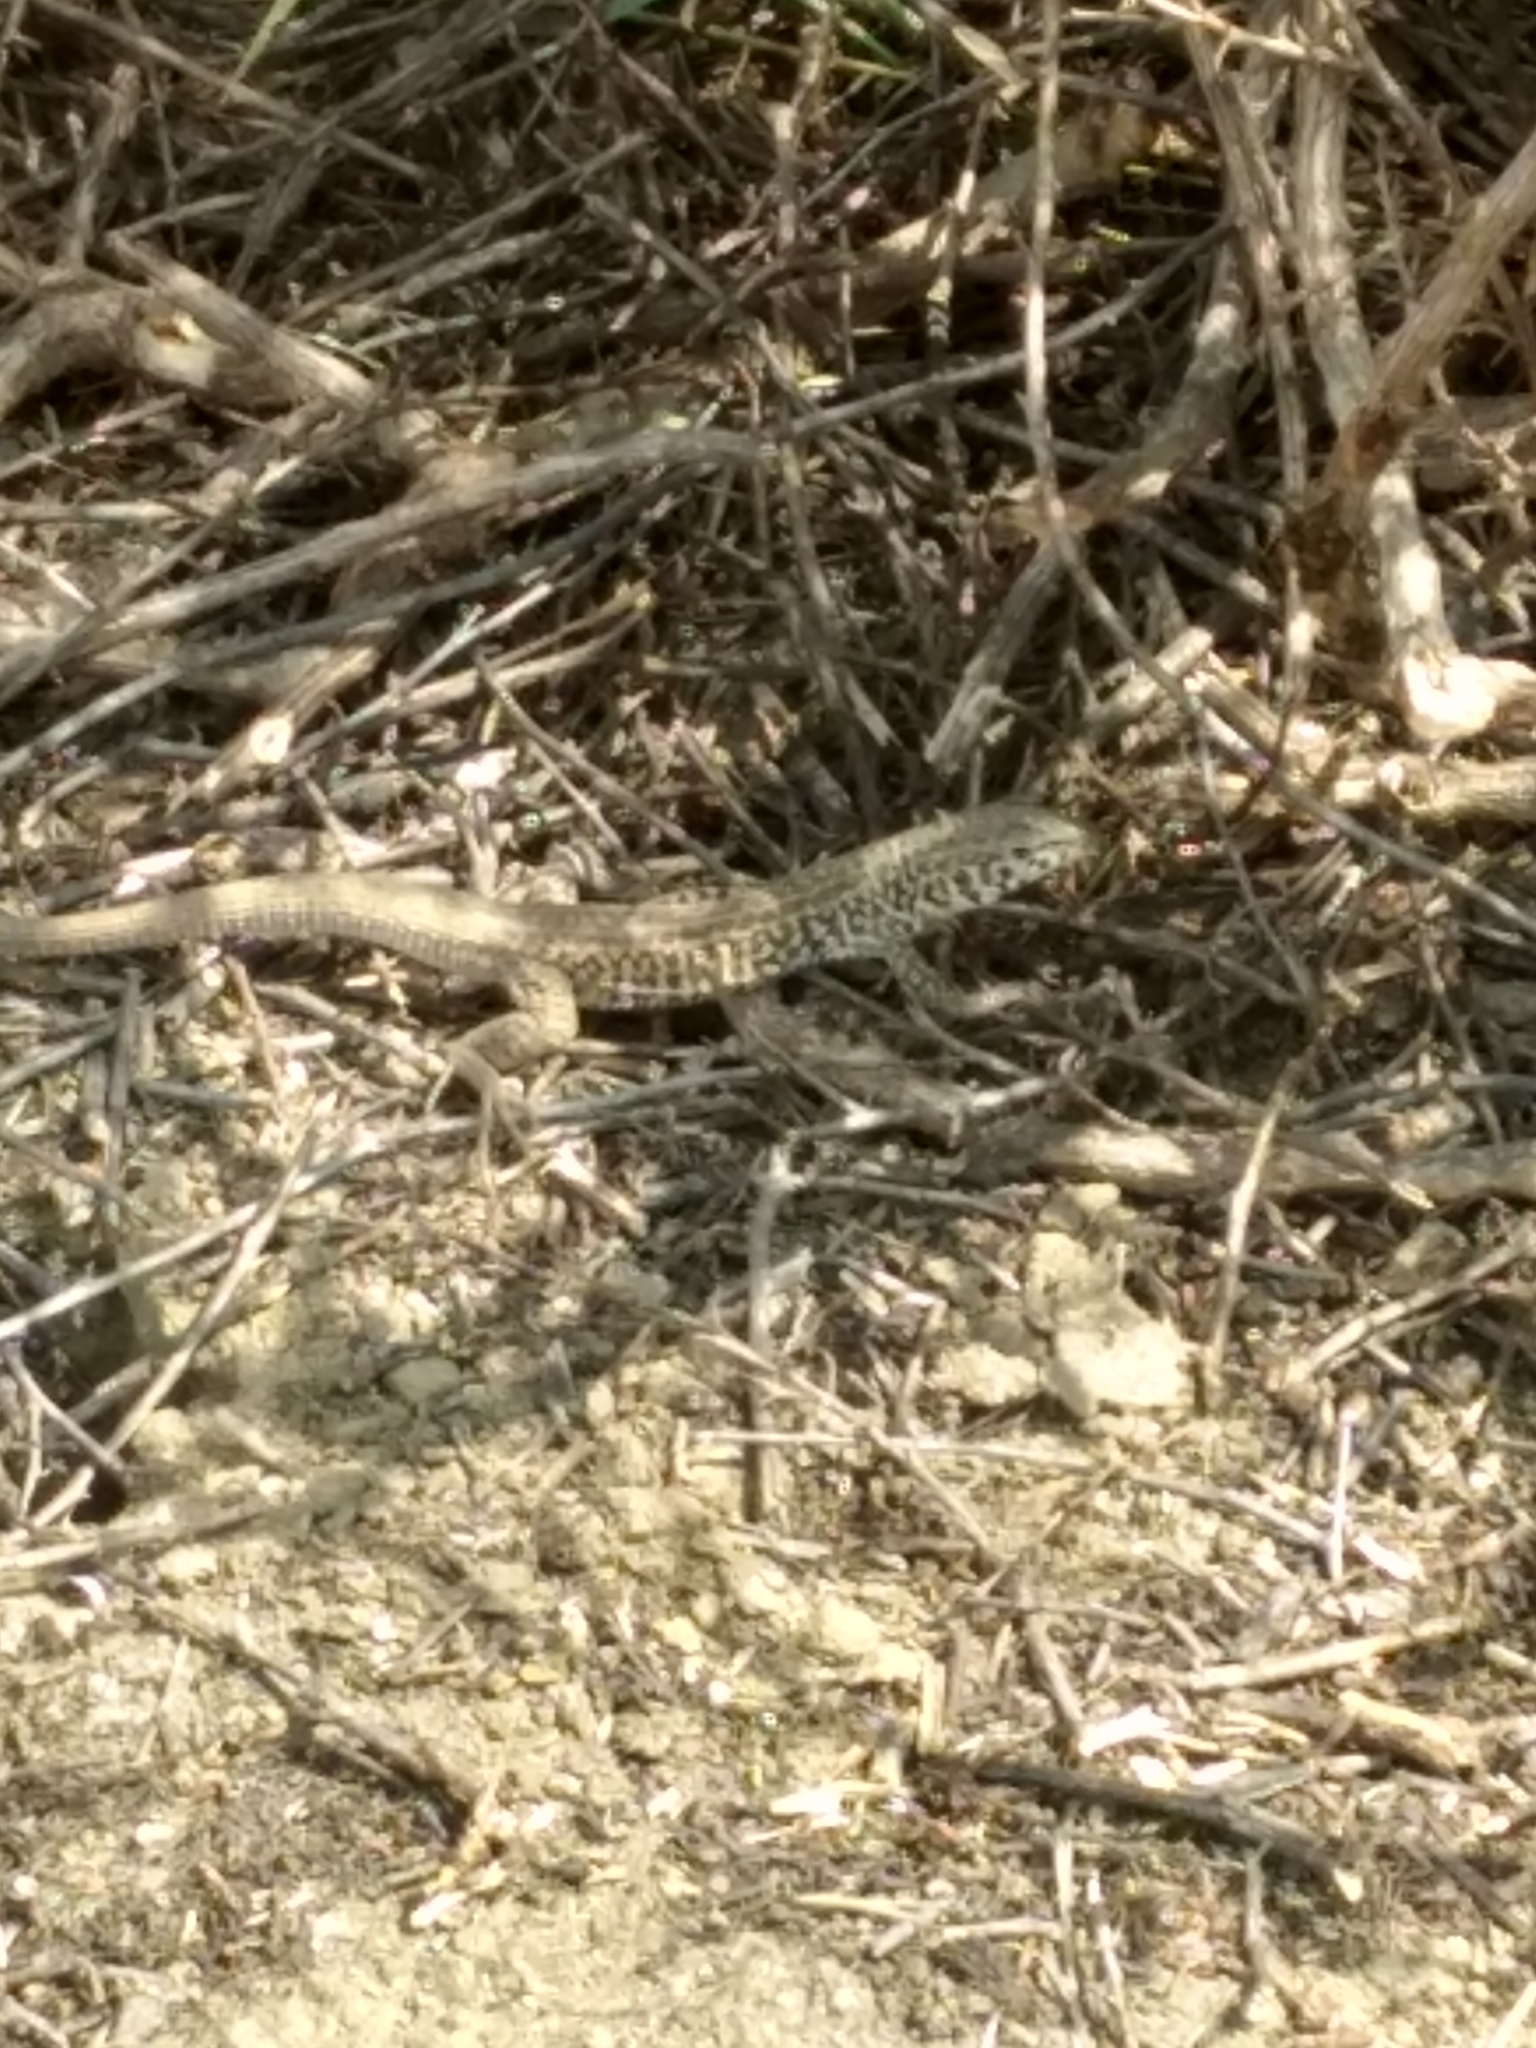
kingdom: Animalia
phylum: Chordata
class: Squamata
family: Teiidae
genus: Aspidoscelis
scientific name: Aspidoscelis tigris
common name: Tiger whiptail
